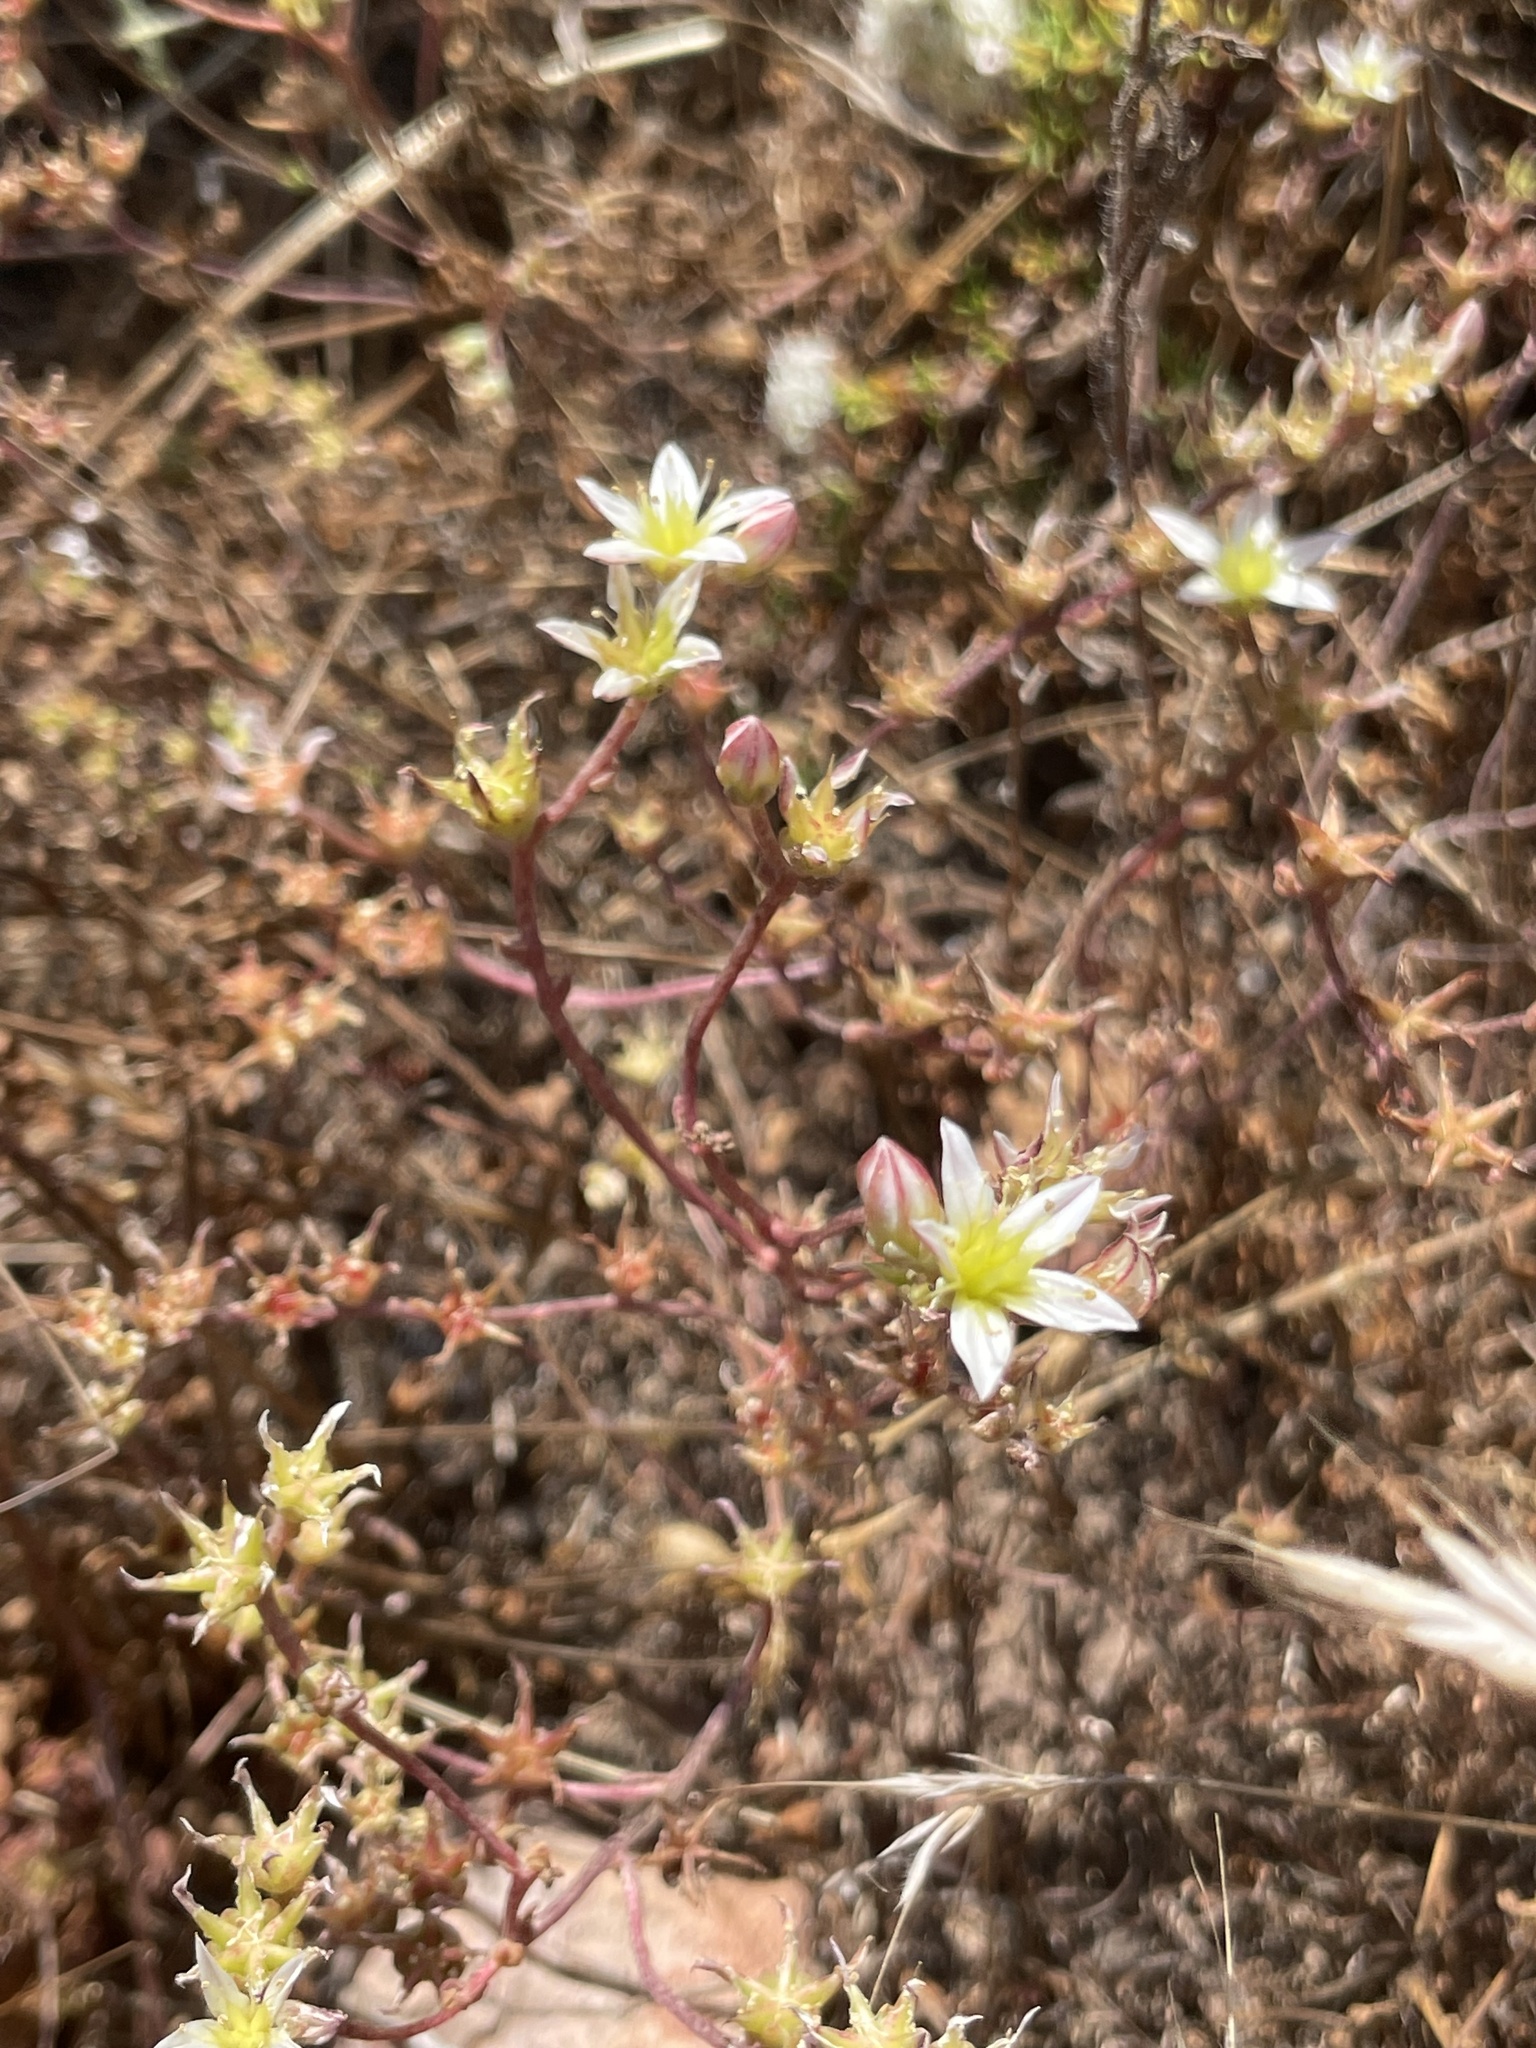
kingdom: Plantae
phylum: Tracheophyta
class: Magnoliopsida
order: Saxifragales
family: Crassulaceae
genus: Dudleya
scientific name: Dudleya blochmaniae
